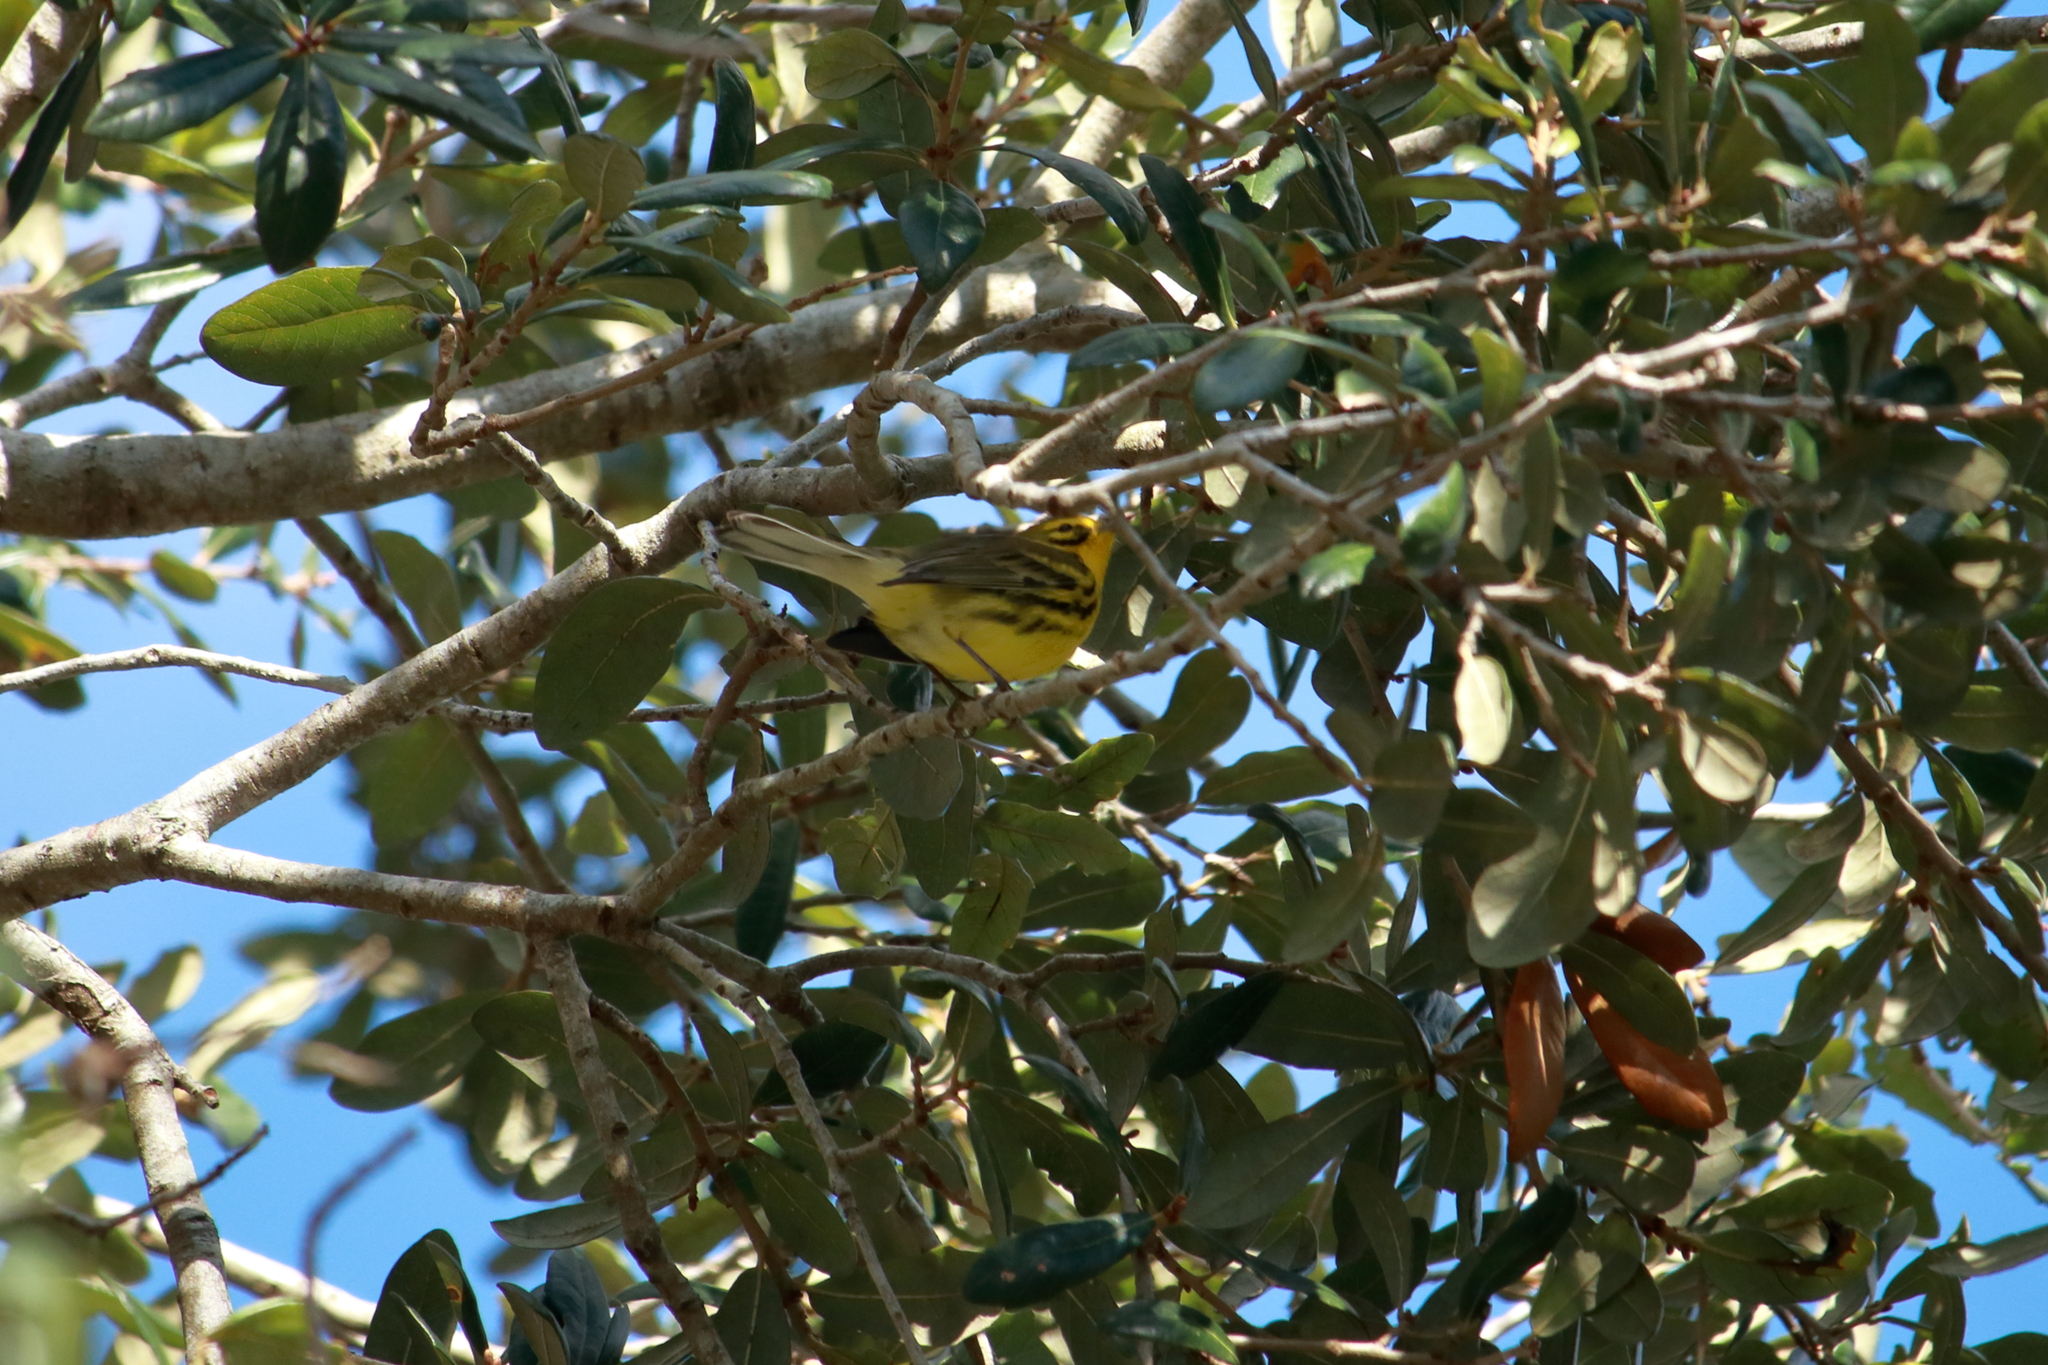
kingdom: Animalia
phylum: Chordata
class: Aves
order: Passeriformes
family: Parulidae
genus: Setophaga
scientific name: Setophaga discolor
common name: Prairie warbler
